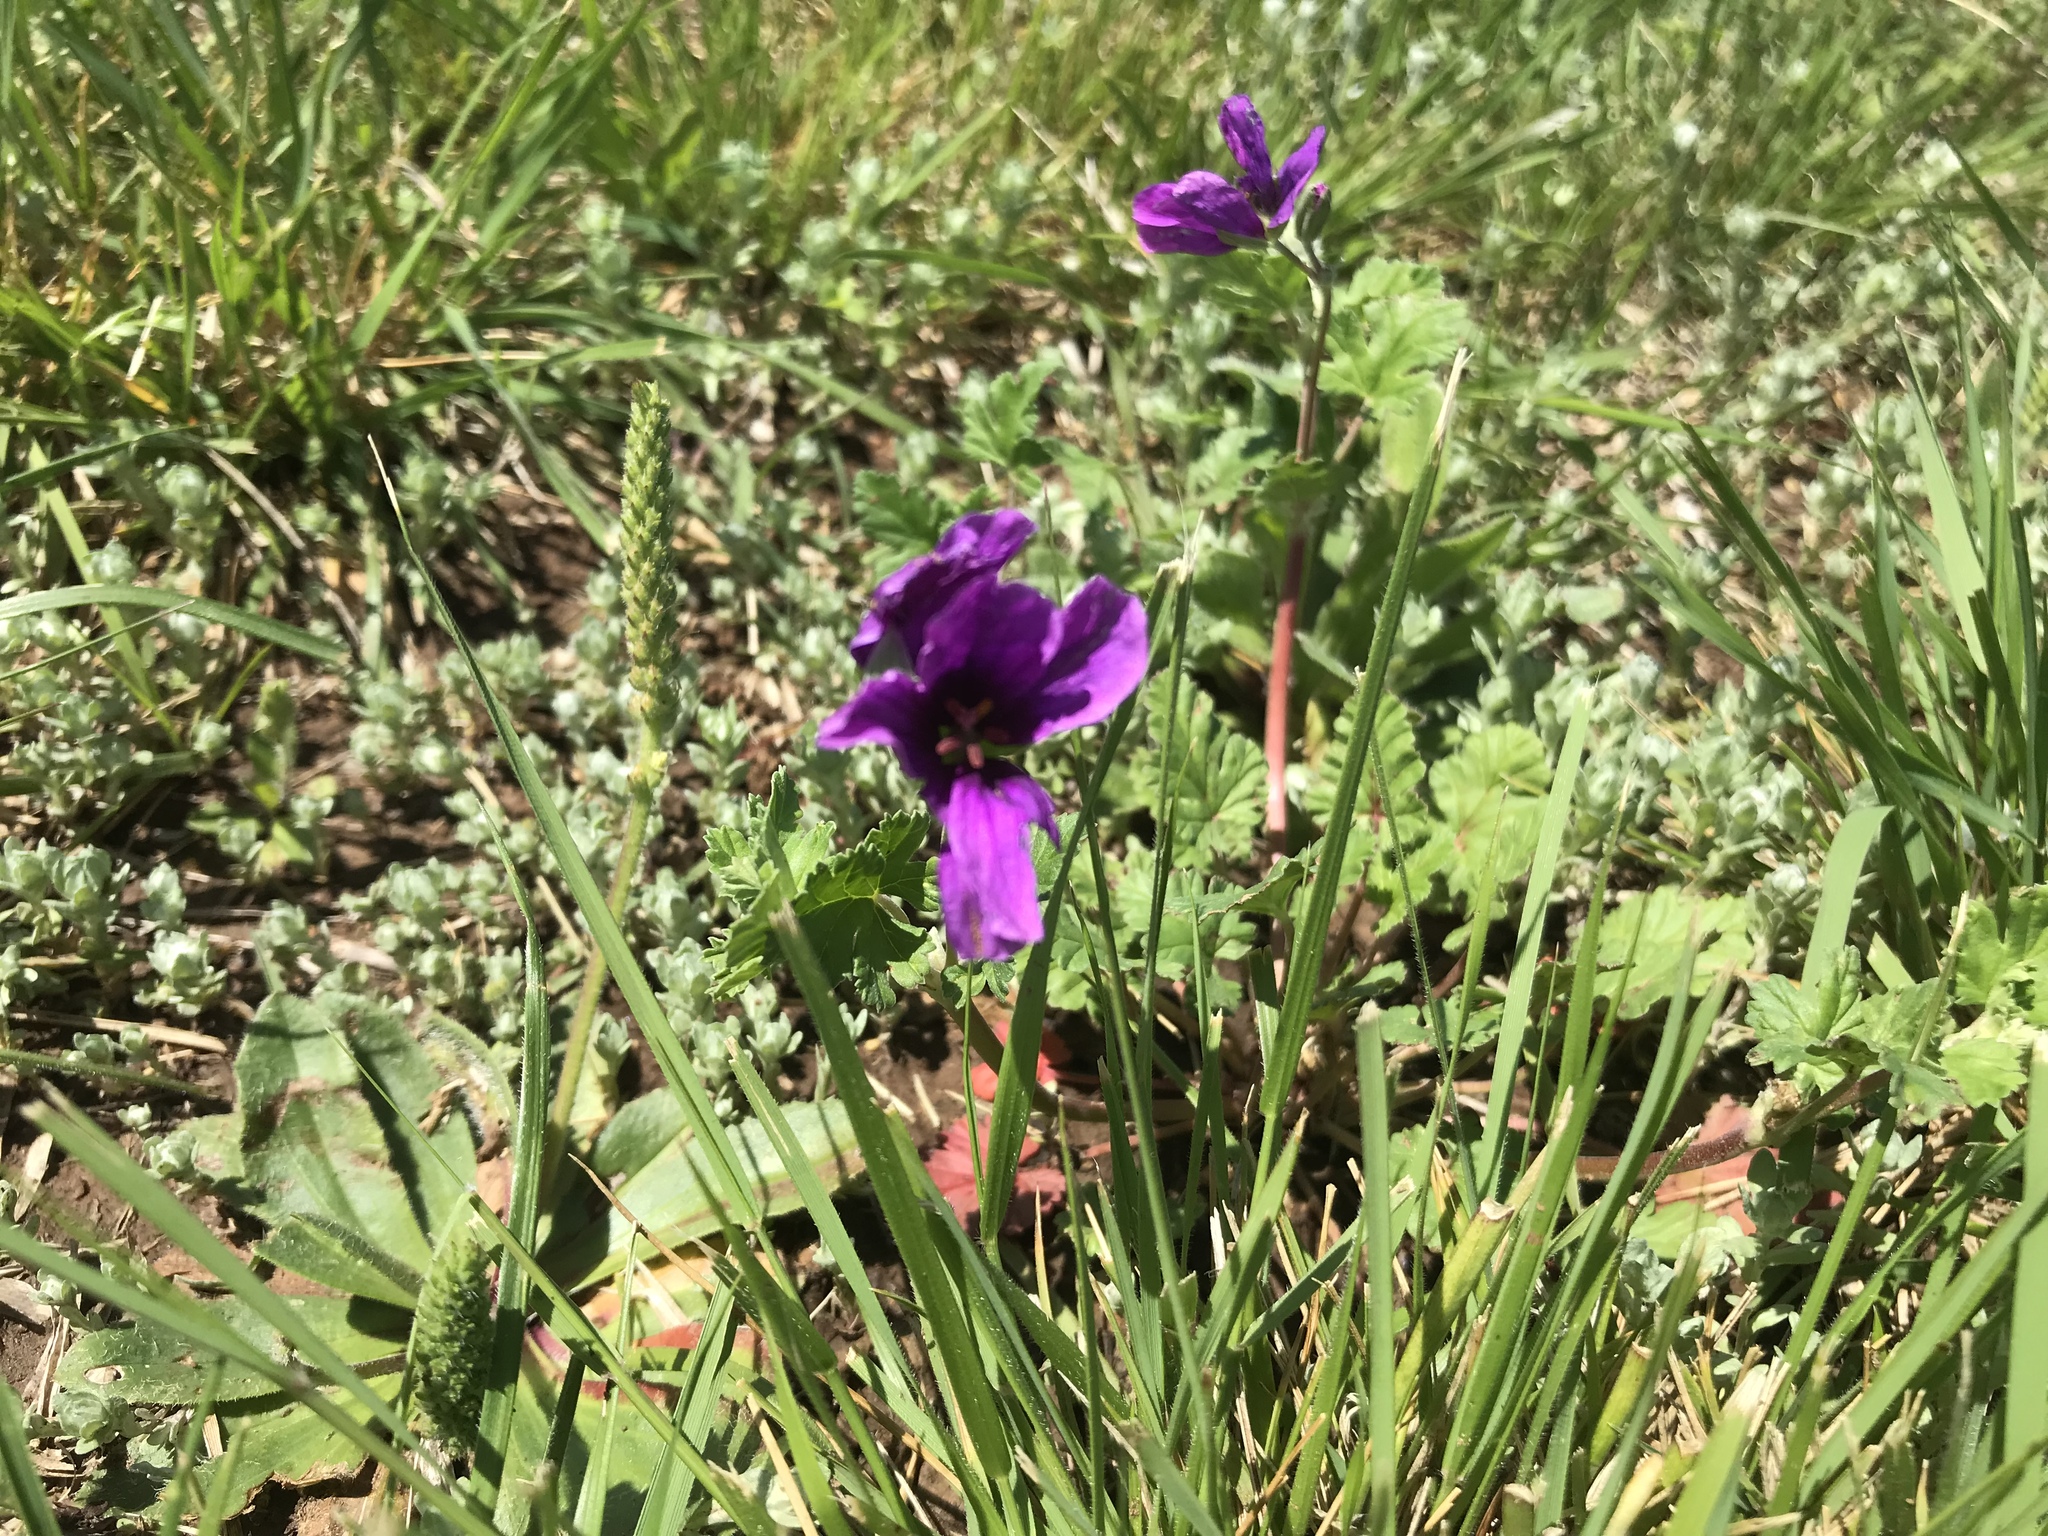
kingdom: Plantae
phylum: Tracheophyta
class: Magnoliopsida
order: Geraniales
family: Geraniaceae
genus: Erodium
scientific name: Erodium texanum
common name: Texas stork's-bill
